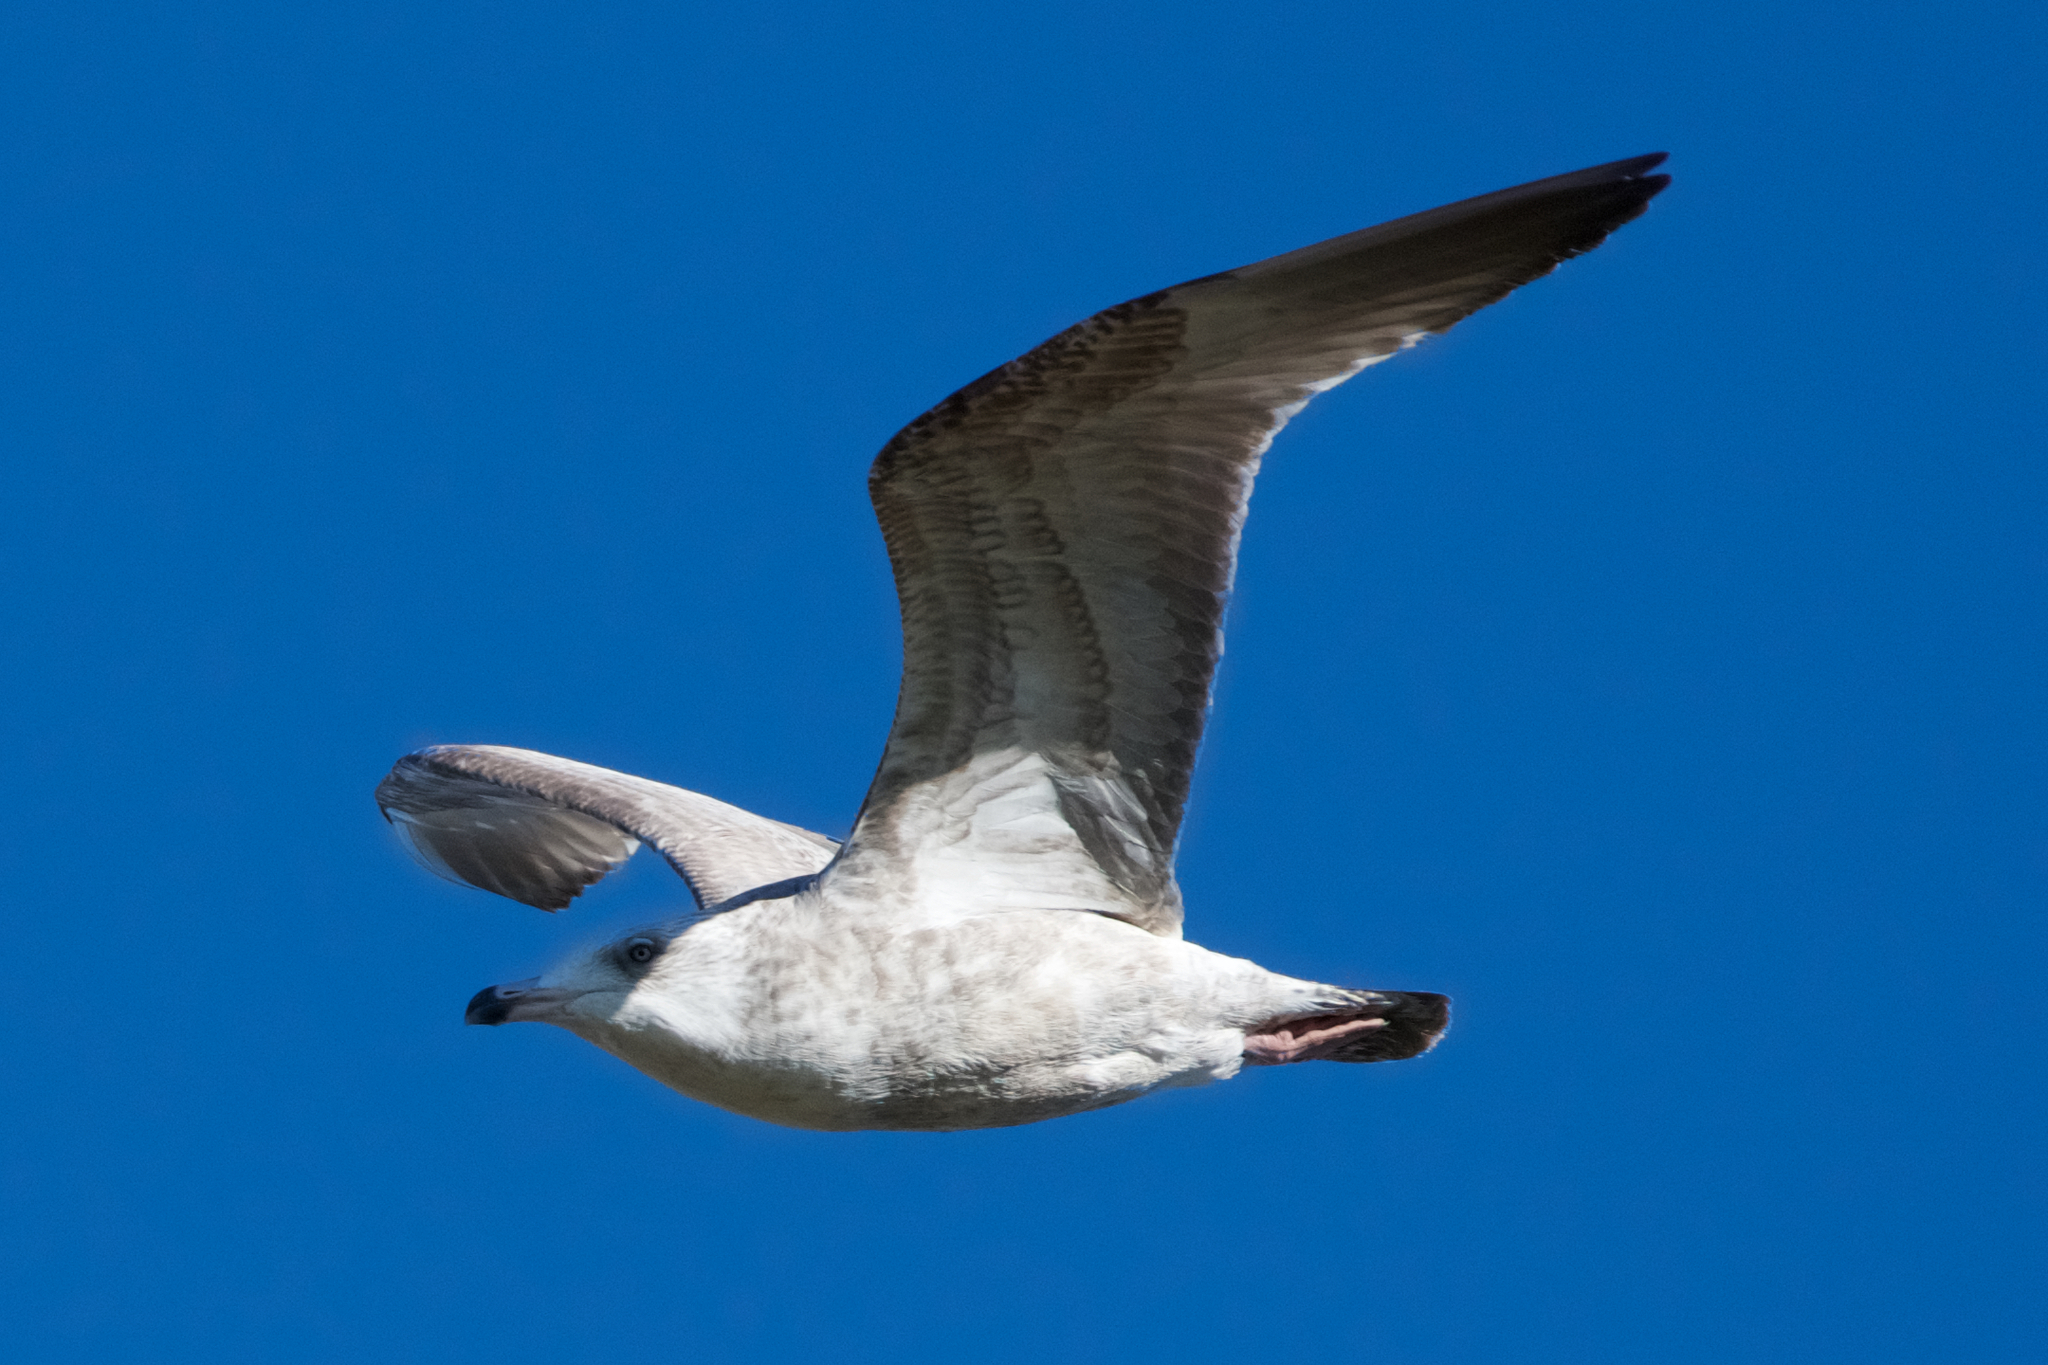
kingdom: Animalia
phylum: Chordata
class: Aves
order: Charadriiformes
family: Laridae
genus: Larus
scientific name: Larus argentatus
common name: Herring gull
